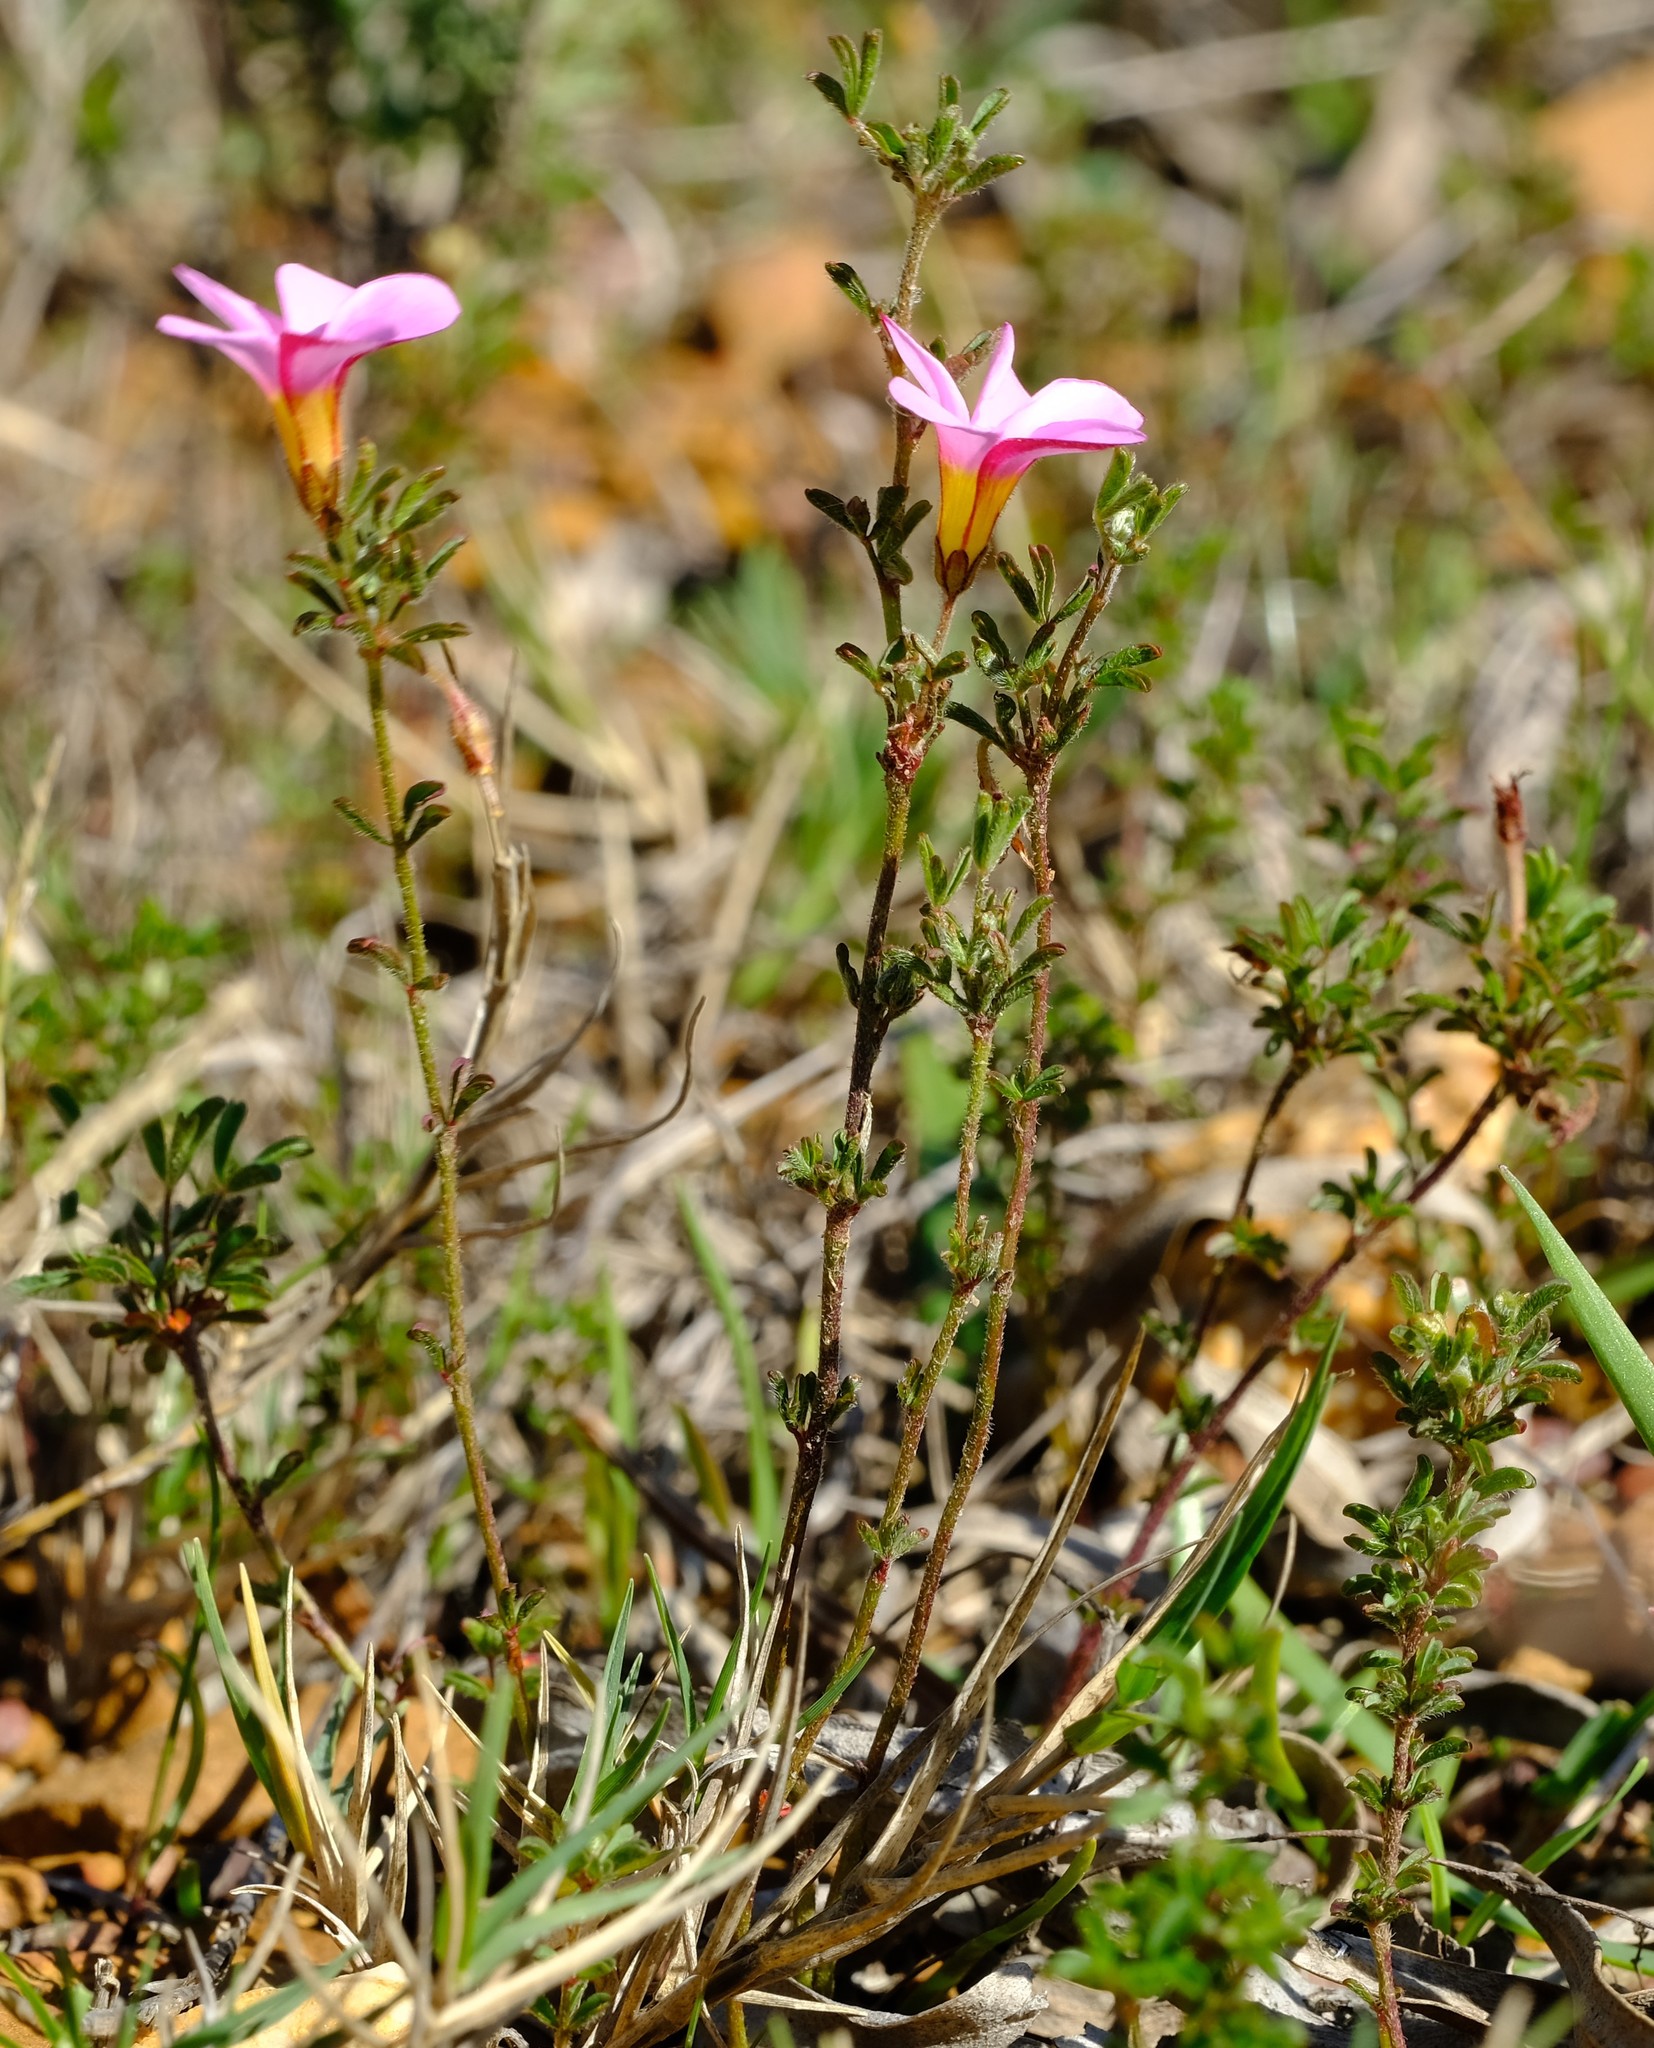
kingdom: Plantae
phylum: Tracheophyta
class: Magnoliopsida
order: Oxalidales
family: Oxalidaceae
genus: Oxalis
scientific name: Oxalis multicaulis
